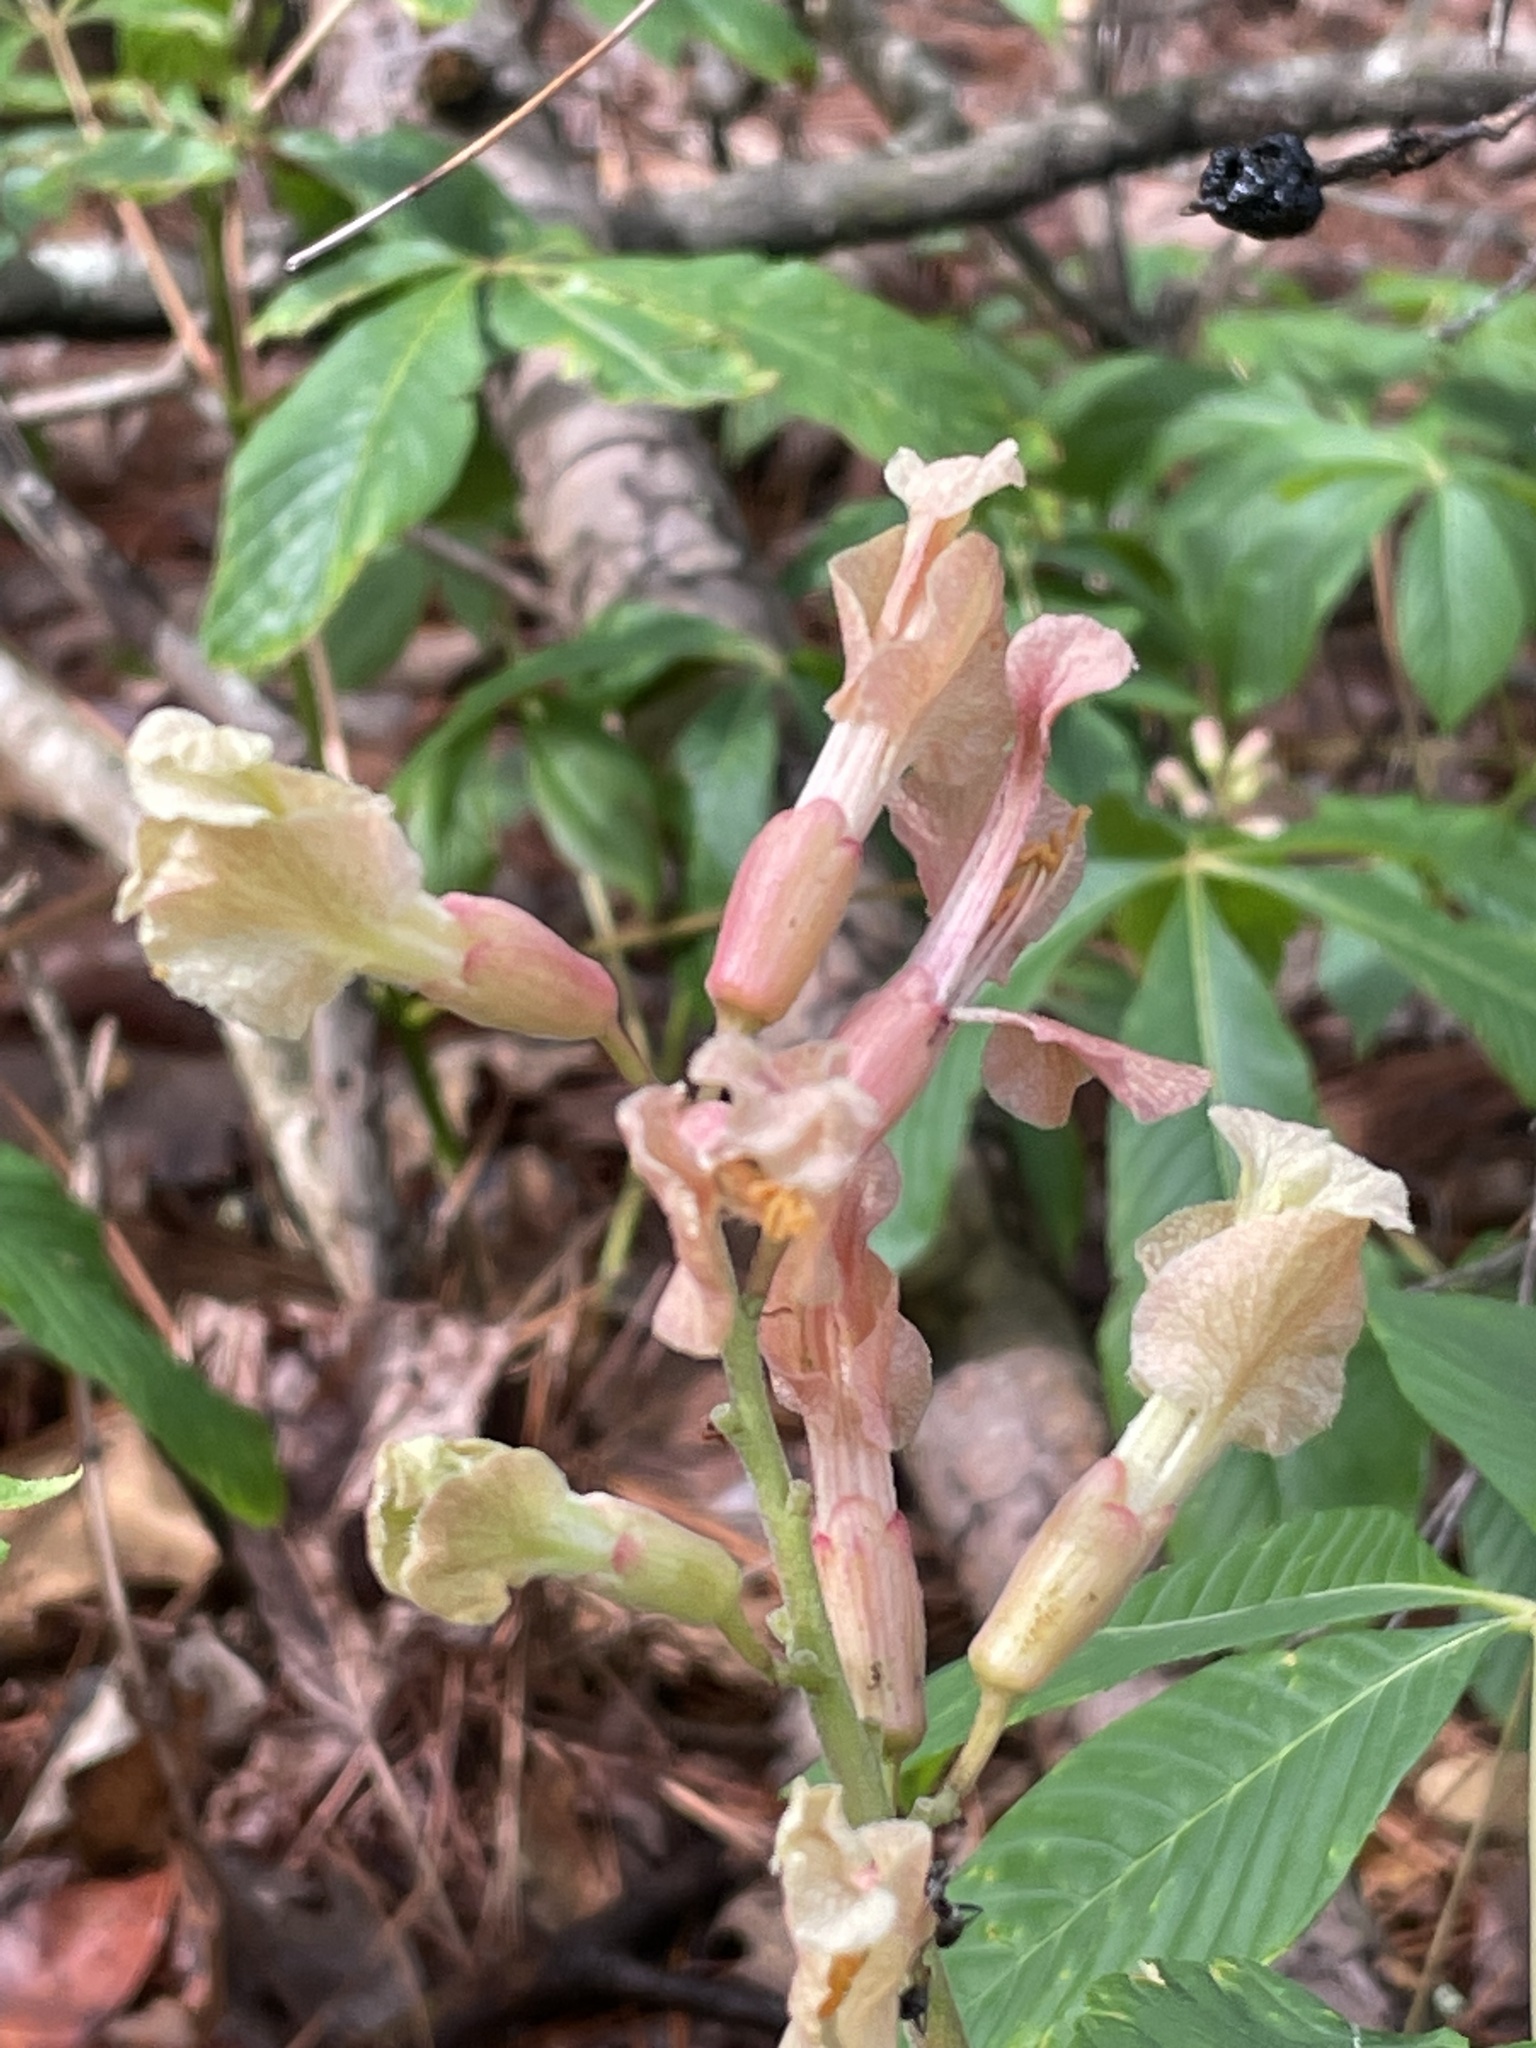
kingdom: Plantae
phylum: Tracheophyta
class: Magnoliopsida
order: Sapindales
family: Sapindaceae
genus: Aesculus
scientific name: Aesculus sylvatica
